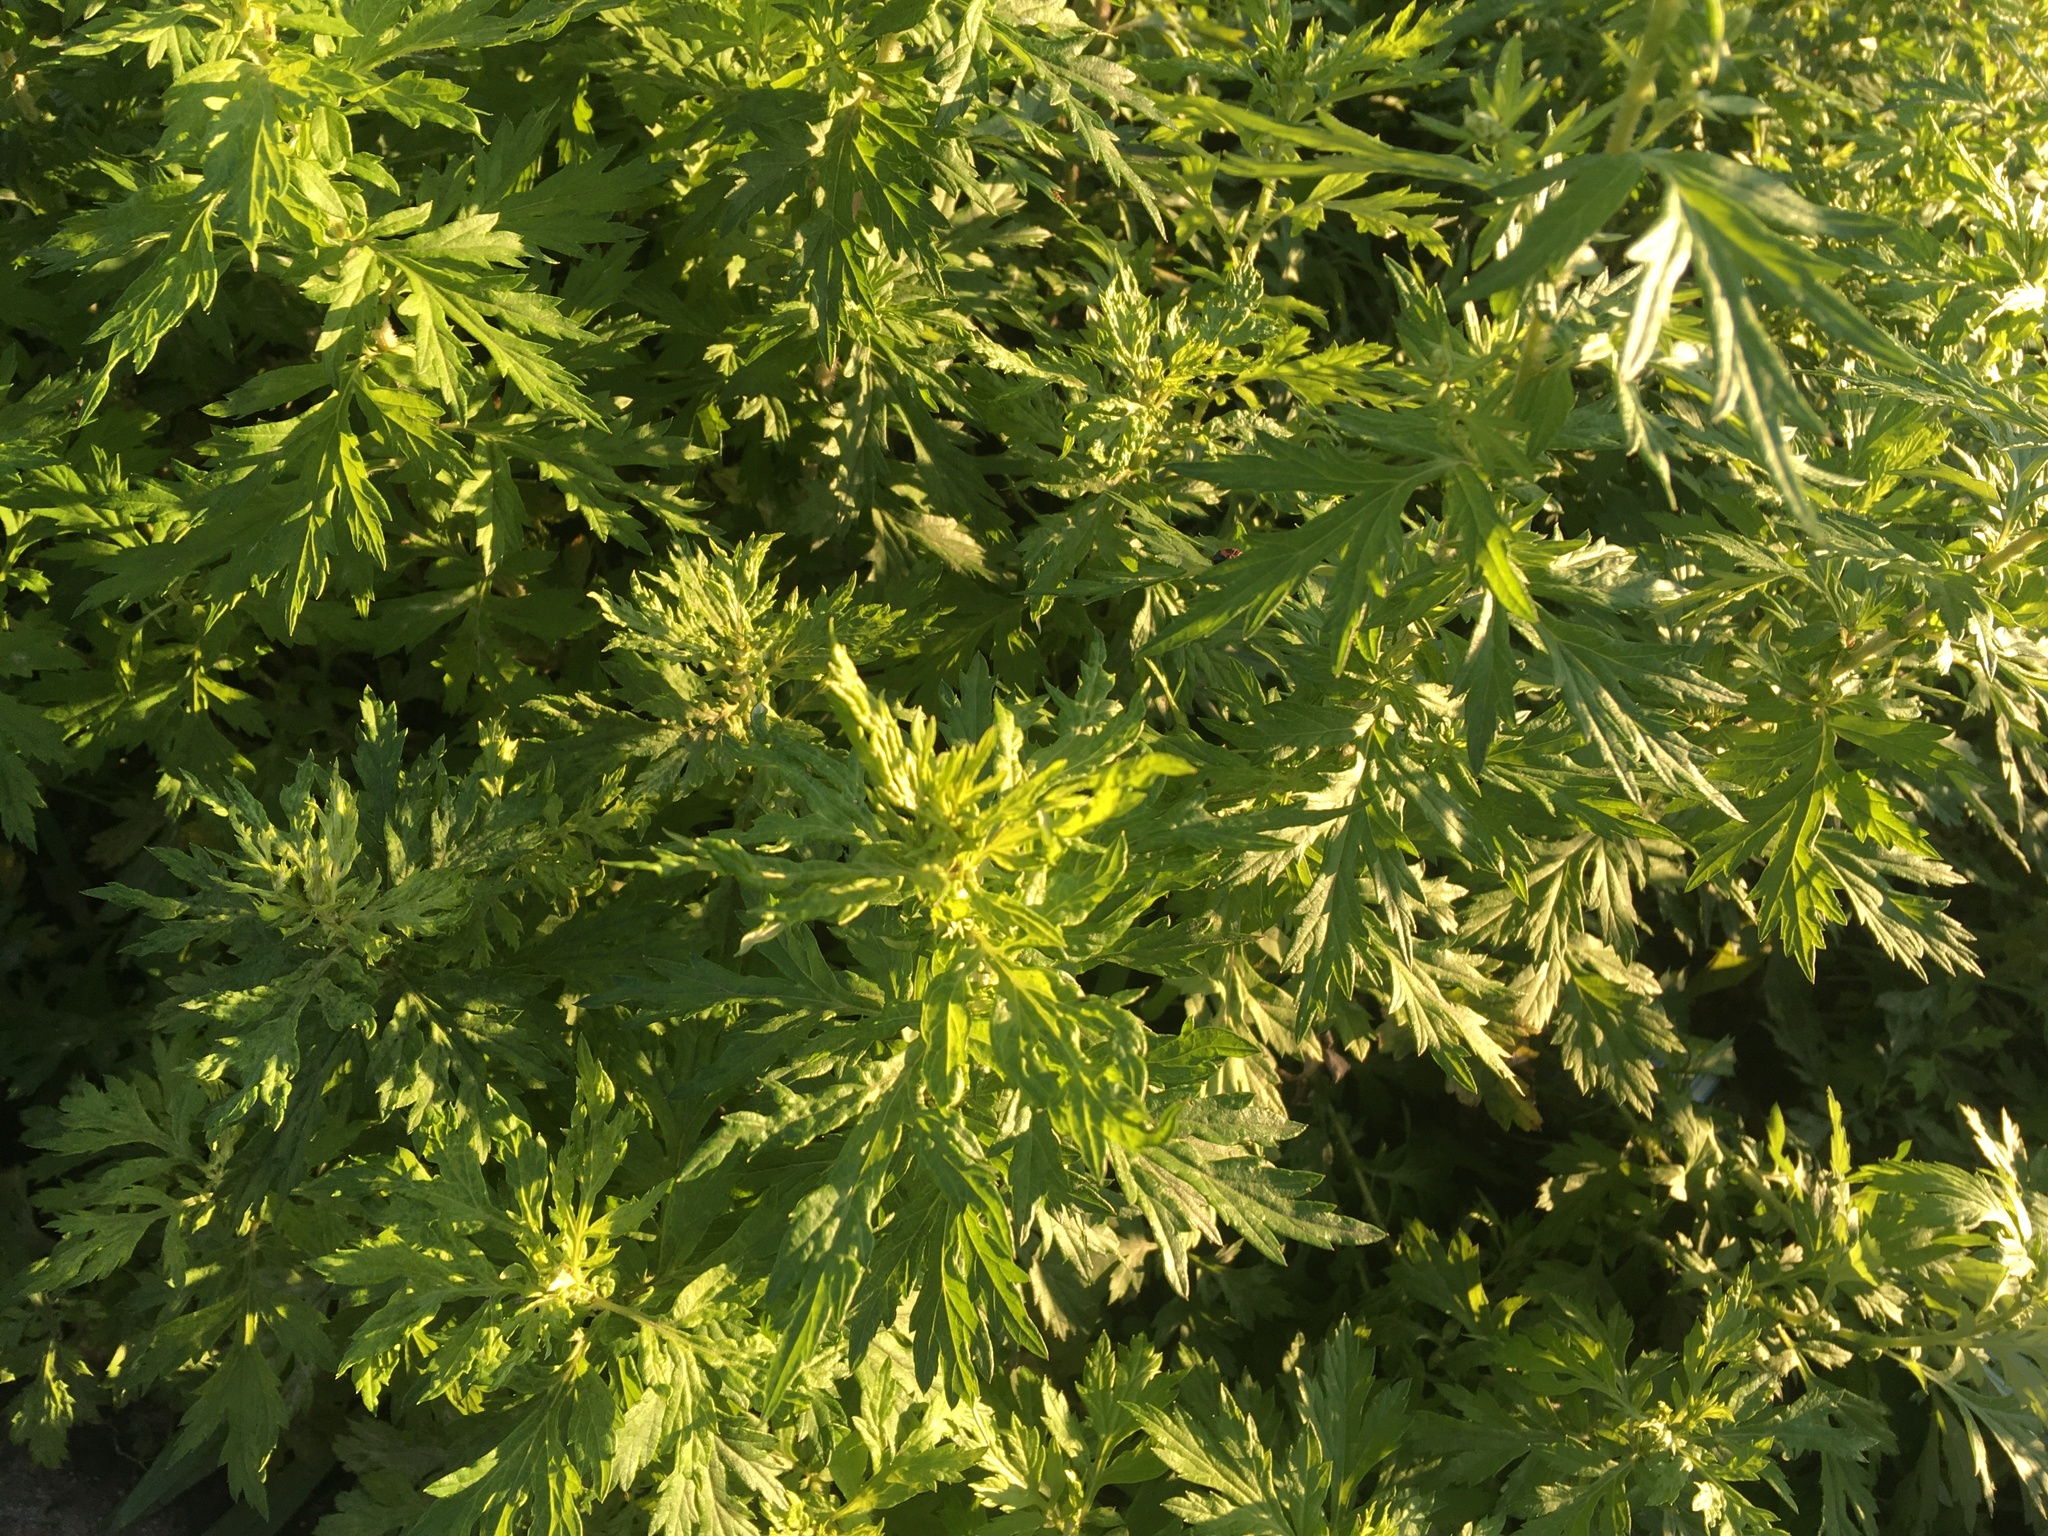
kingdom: Plantae
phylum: Tracheophyta
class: Magnoliopsida
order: Asterales
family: Asteraceae
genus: Artemisia
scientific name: Artemisia vulgaris
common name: Mugwort
